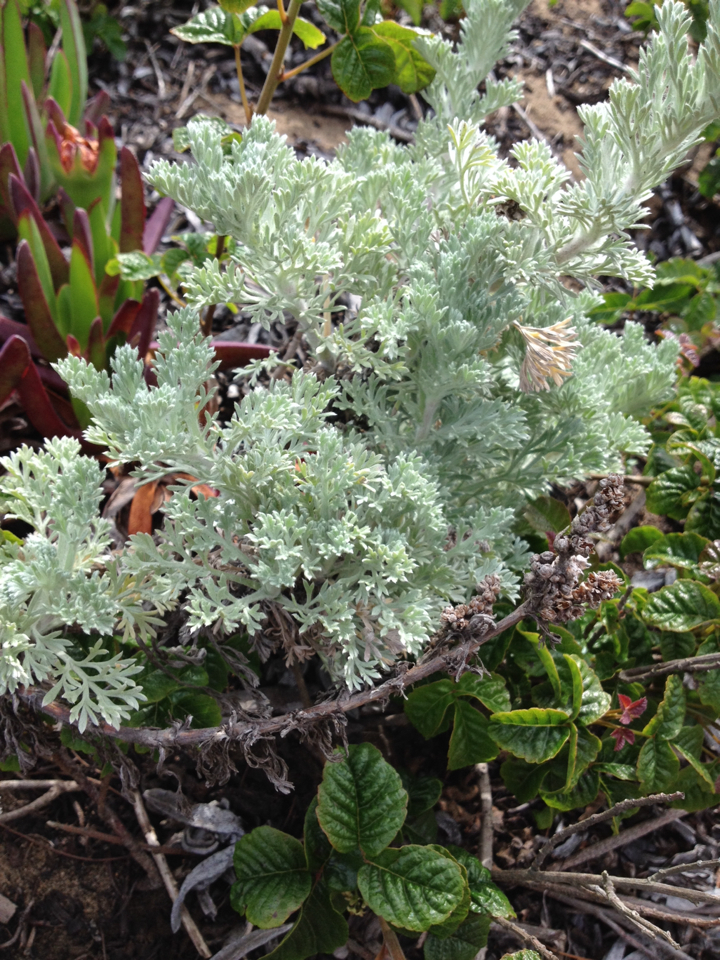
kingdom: Plantae
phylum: Tracheophyta
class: Magnoliopsida
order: Asterales
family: Asteraceae
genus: Artemisia
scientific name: Artemisia pycnocephala
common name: Coastal sagewort
